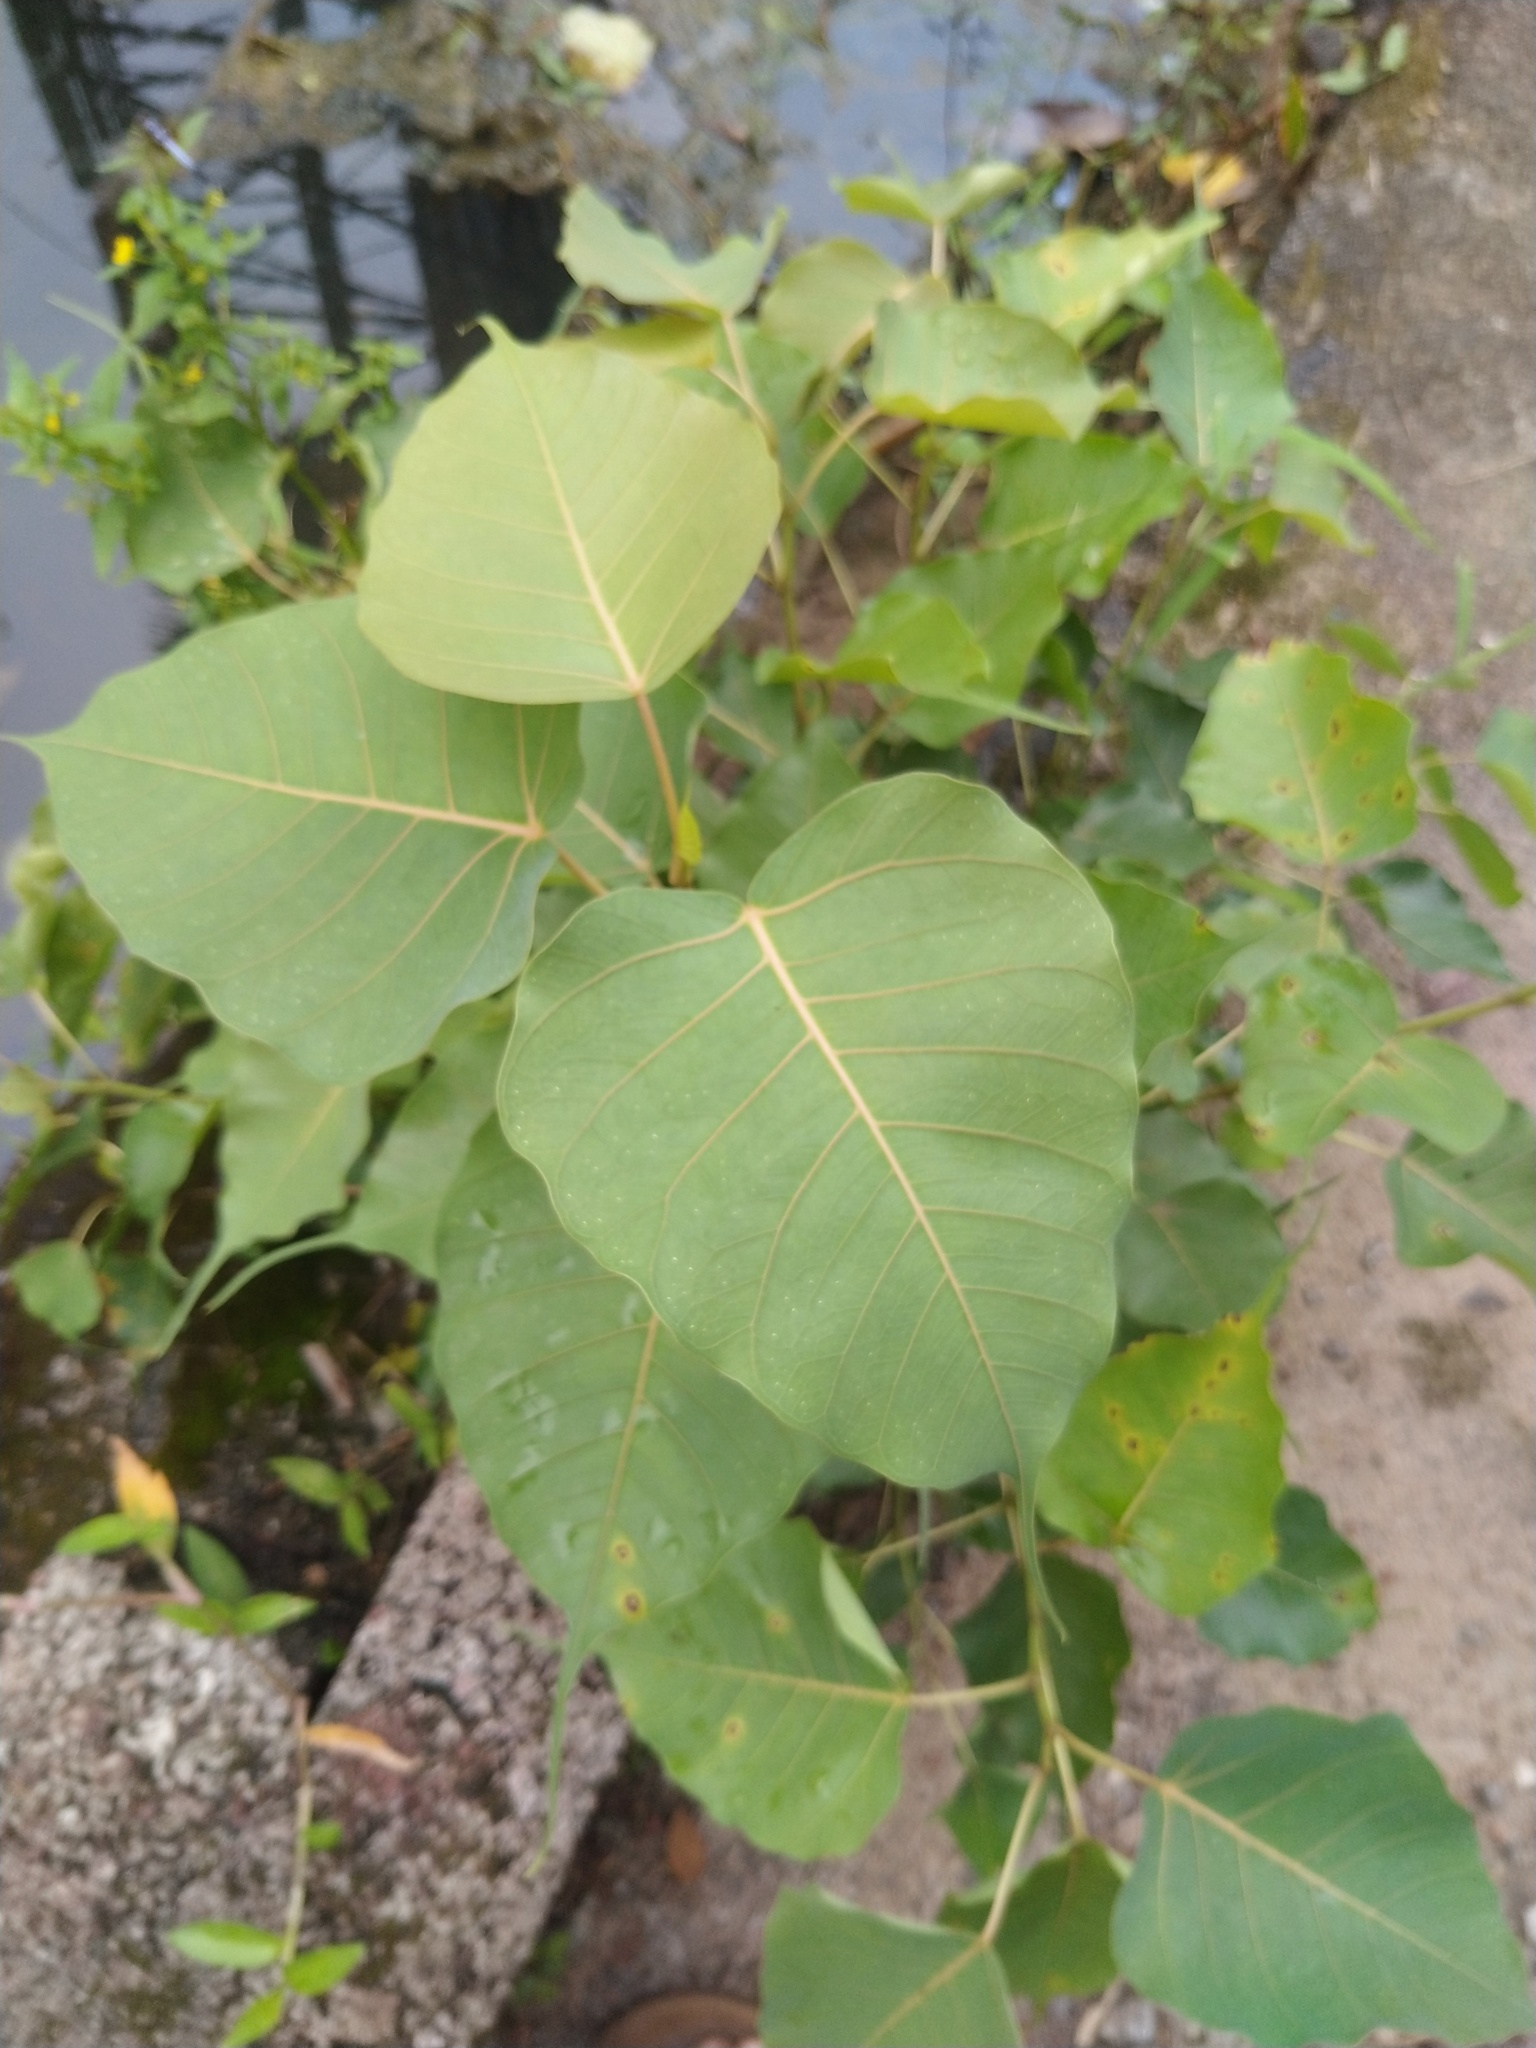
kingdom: Plantae
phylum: Tracheophyta
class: Magnoliopsida
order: Rosales
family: Moraceae
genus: Ficus
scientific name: Ficus religiosa
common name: Bodhi tree
